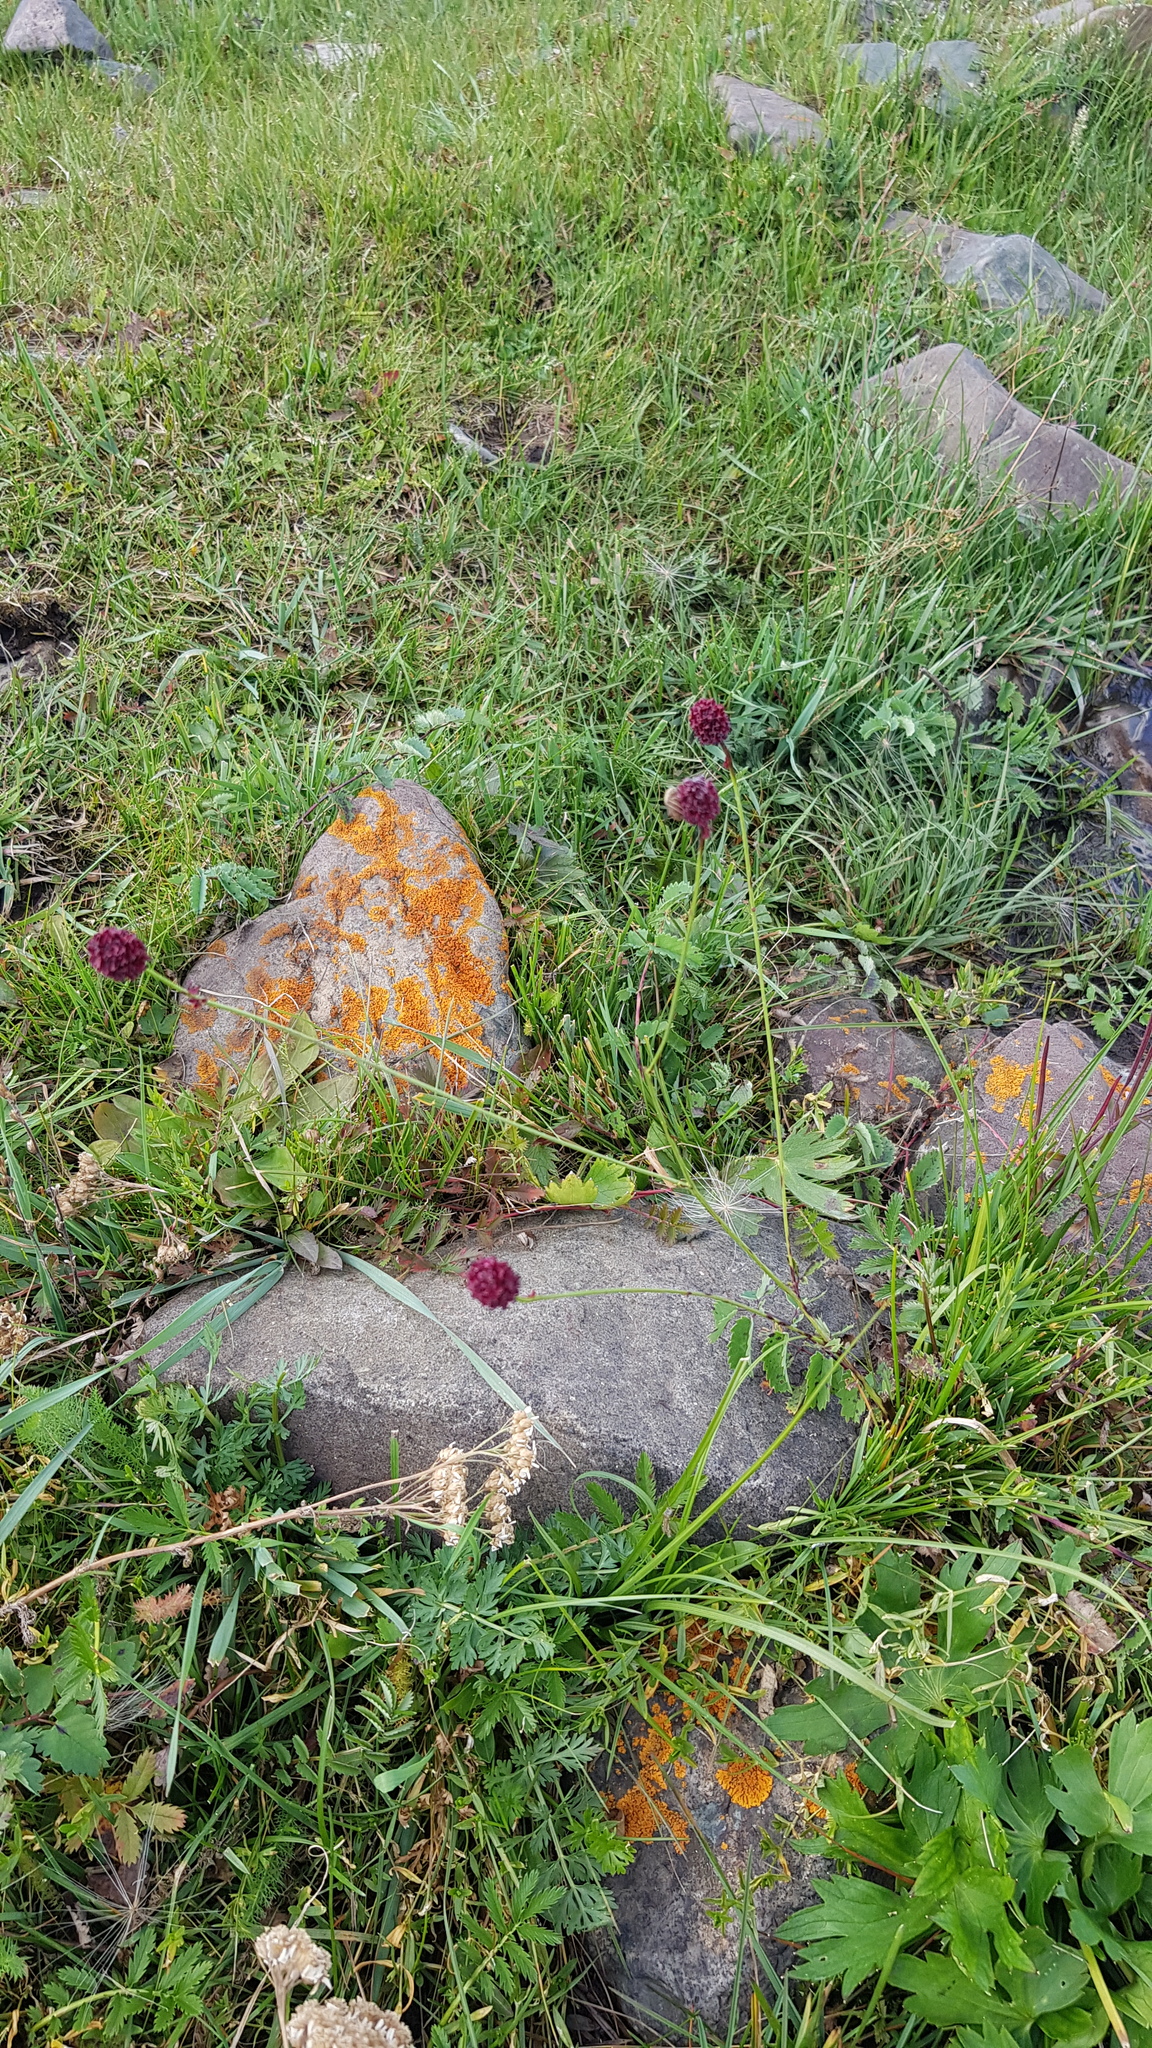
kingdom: Plantae
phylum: Tracheophyta
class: Magnoliopsida
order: Rosales
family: Rosaceae
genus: Sanguisorba
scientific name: Sanguisorba officinalis
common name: Great burnet
